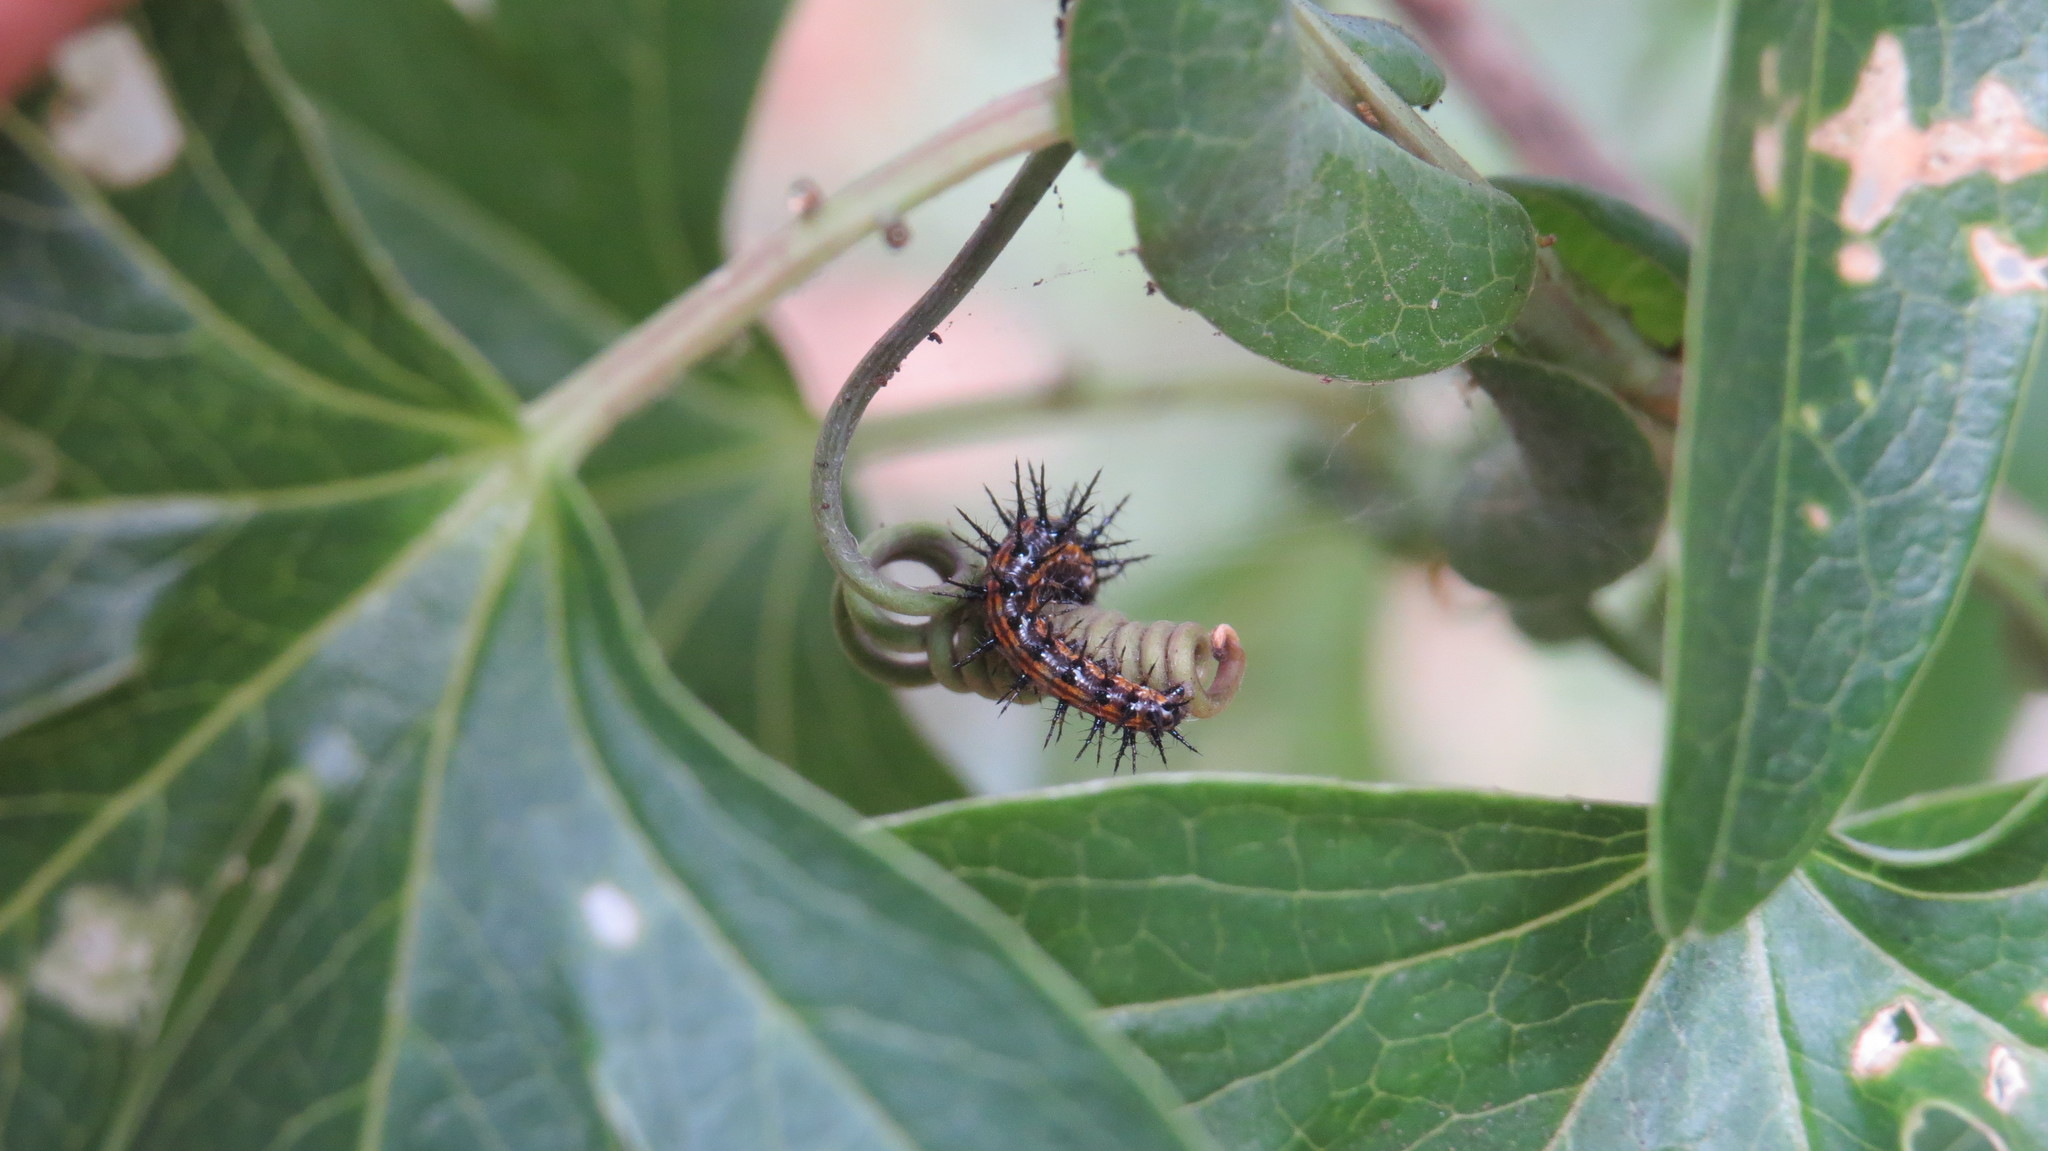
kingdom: Animalia
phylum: Arthropoda
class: Insecta
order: Lepidoptera
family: Nymphalidae
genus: Dione
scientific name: Dione vanillae
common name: Gulf fritillary
